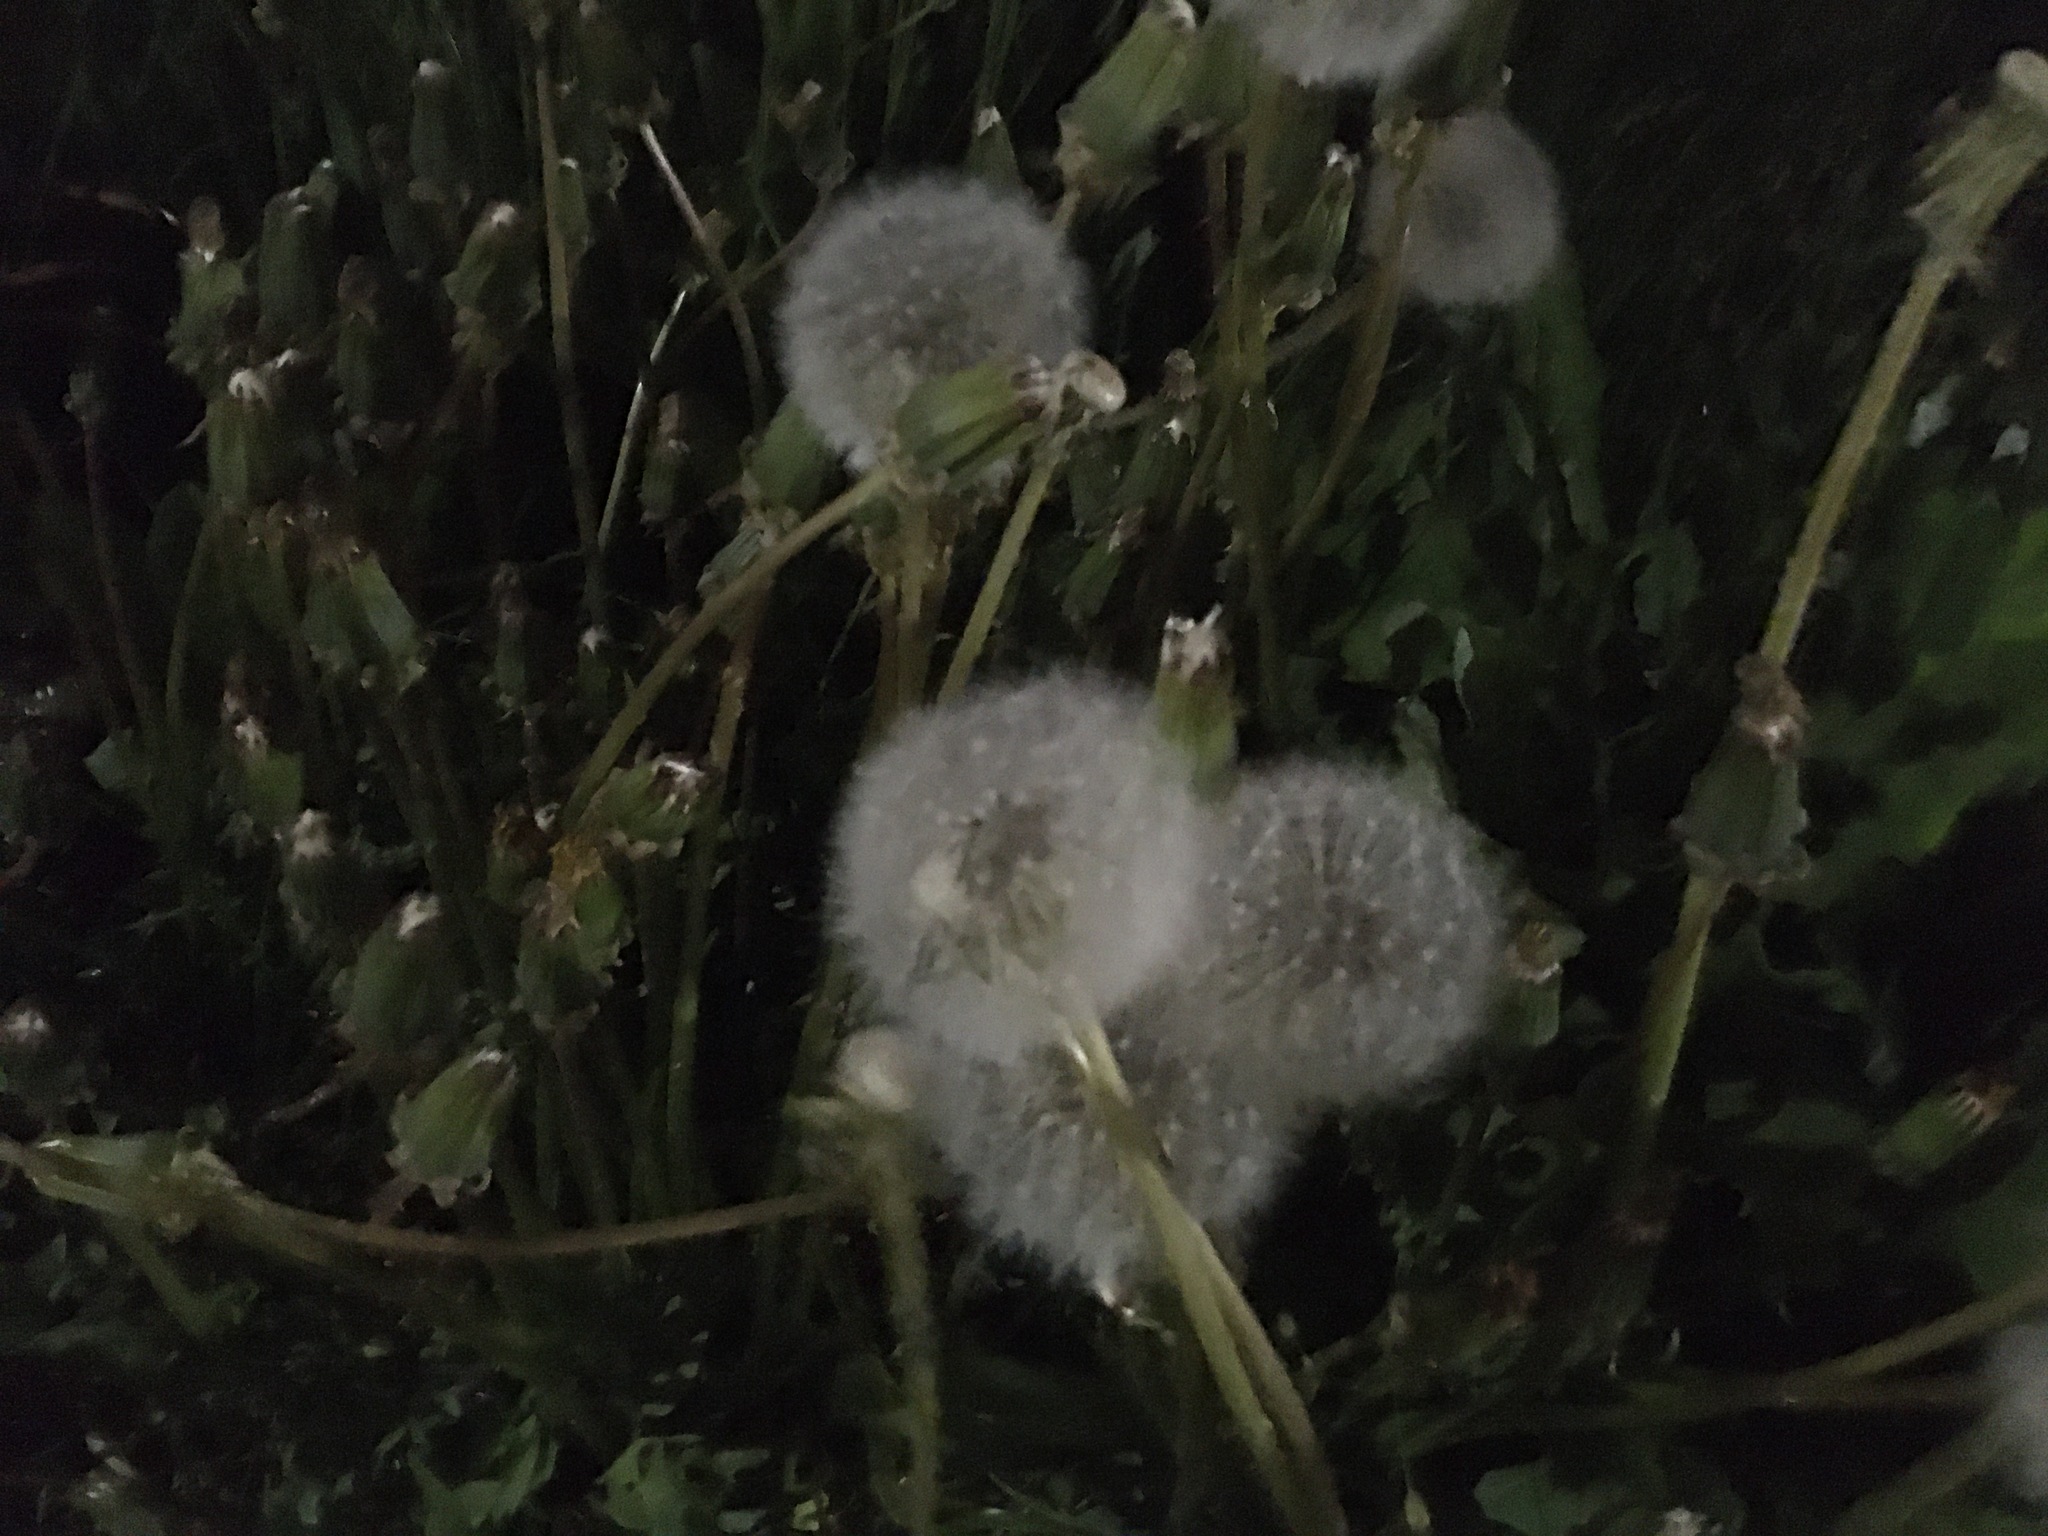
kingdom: Plantae
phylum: Tracheophyta
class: Magnoliopsida
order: Asterales
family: Asteraceae
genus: Taraxacum
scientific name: Taraxacum officinale
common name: Common dandelion
